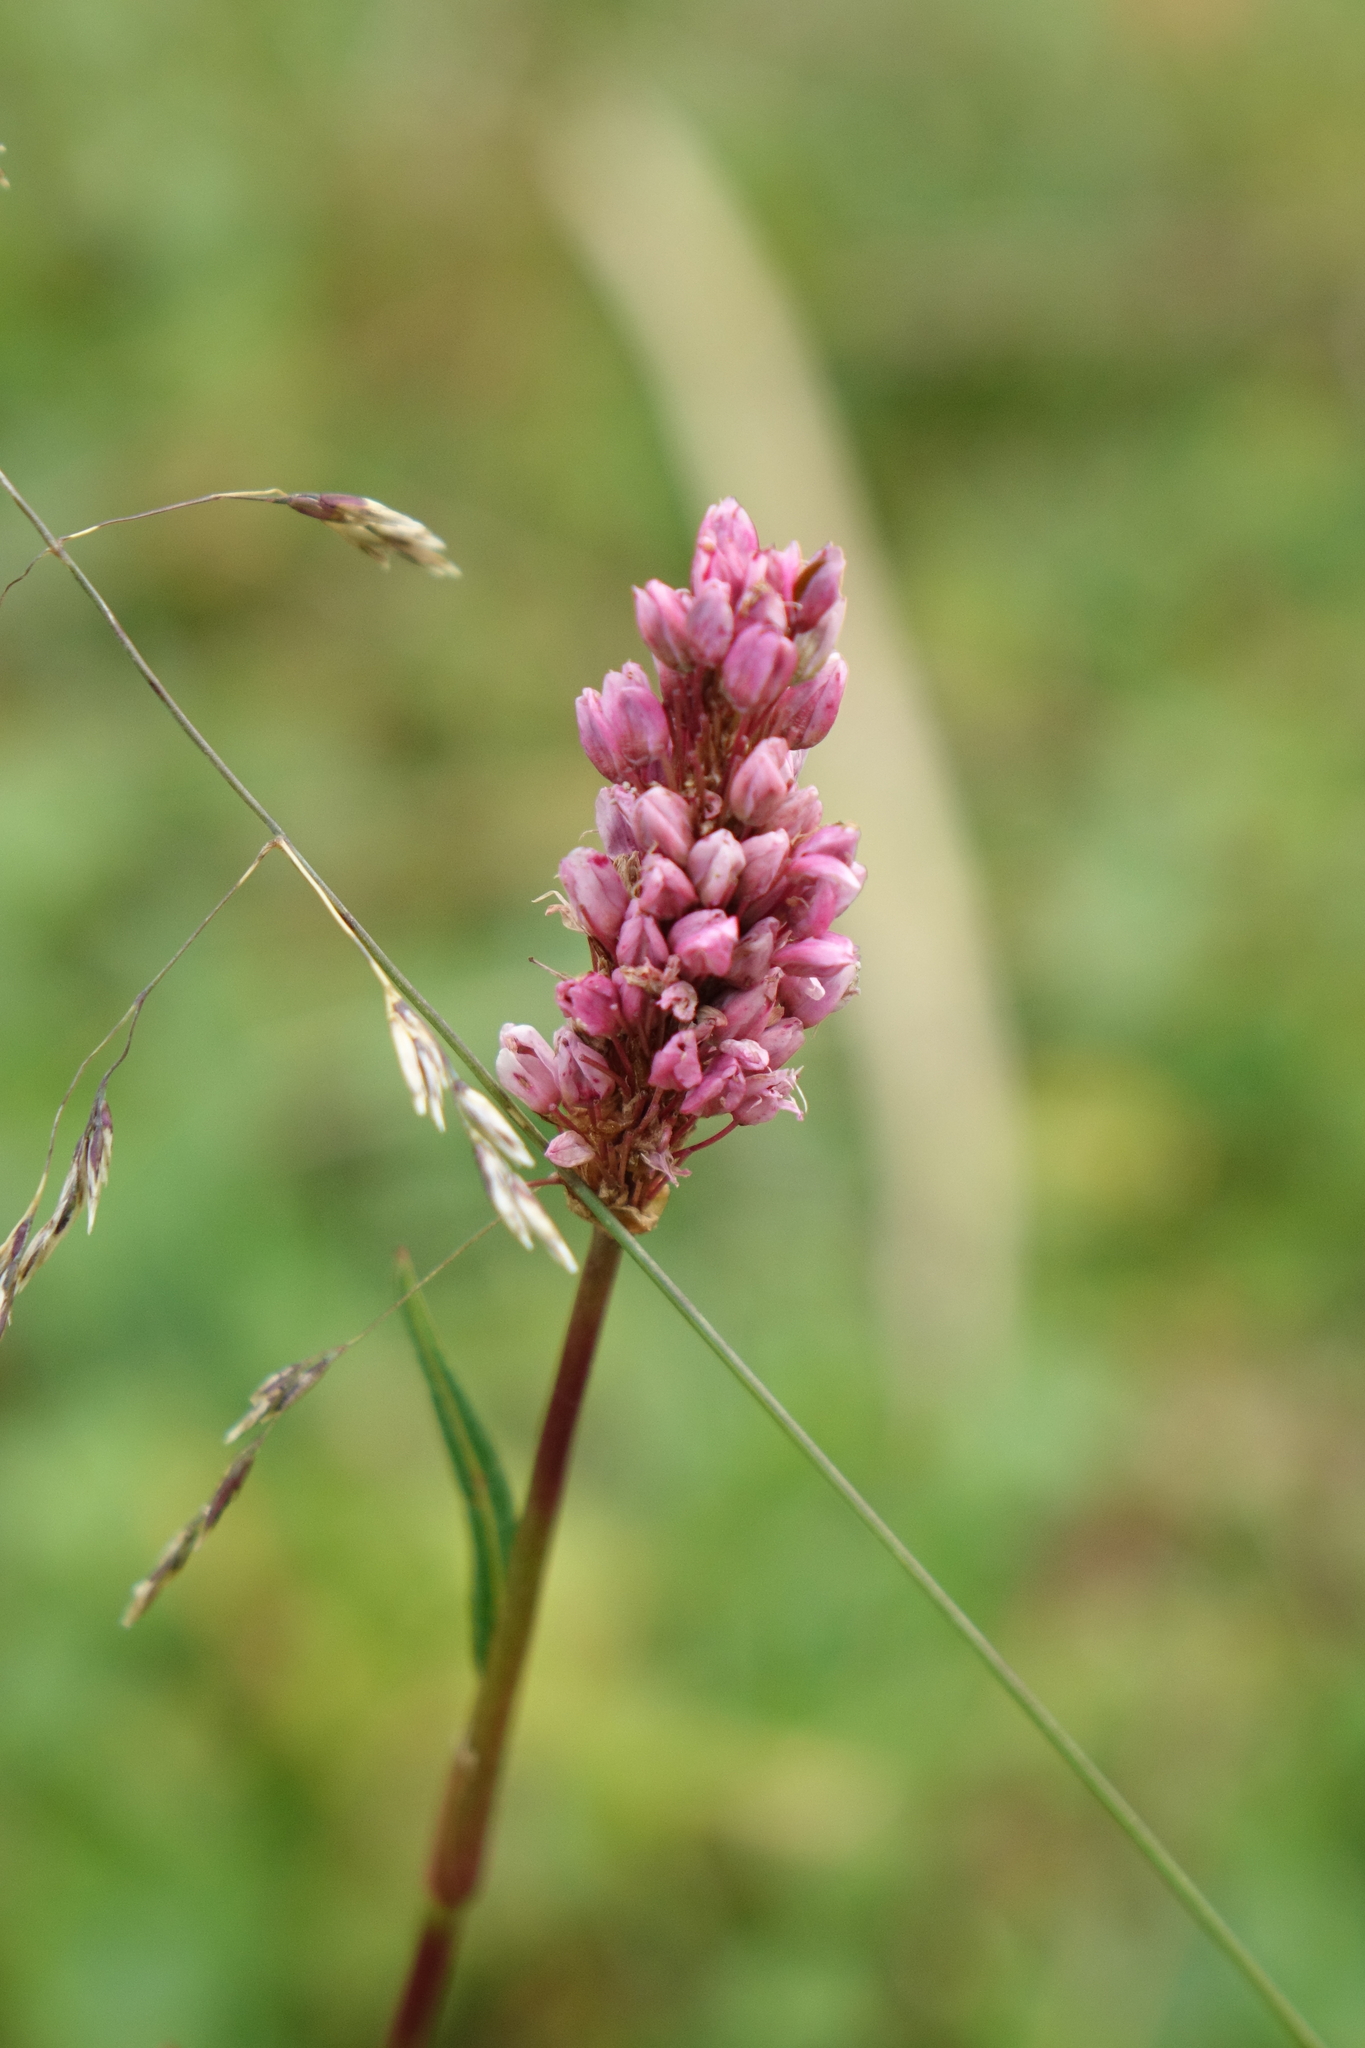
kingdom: Plantae
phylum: Tracheophyta
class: Magnoliopsida
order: Caryophyllales
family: Polygonaceae
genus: Bistorta
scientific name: Bistorta carnea
